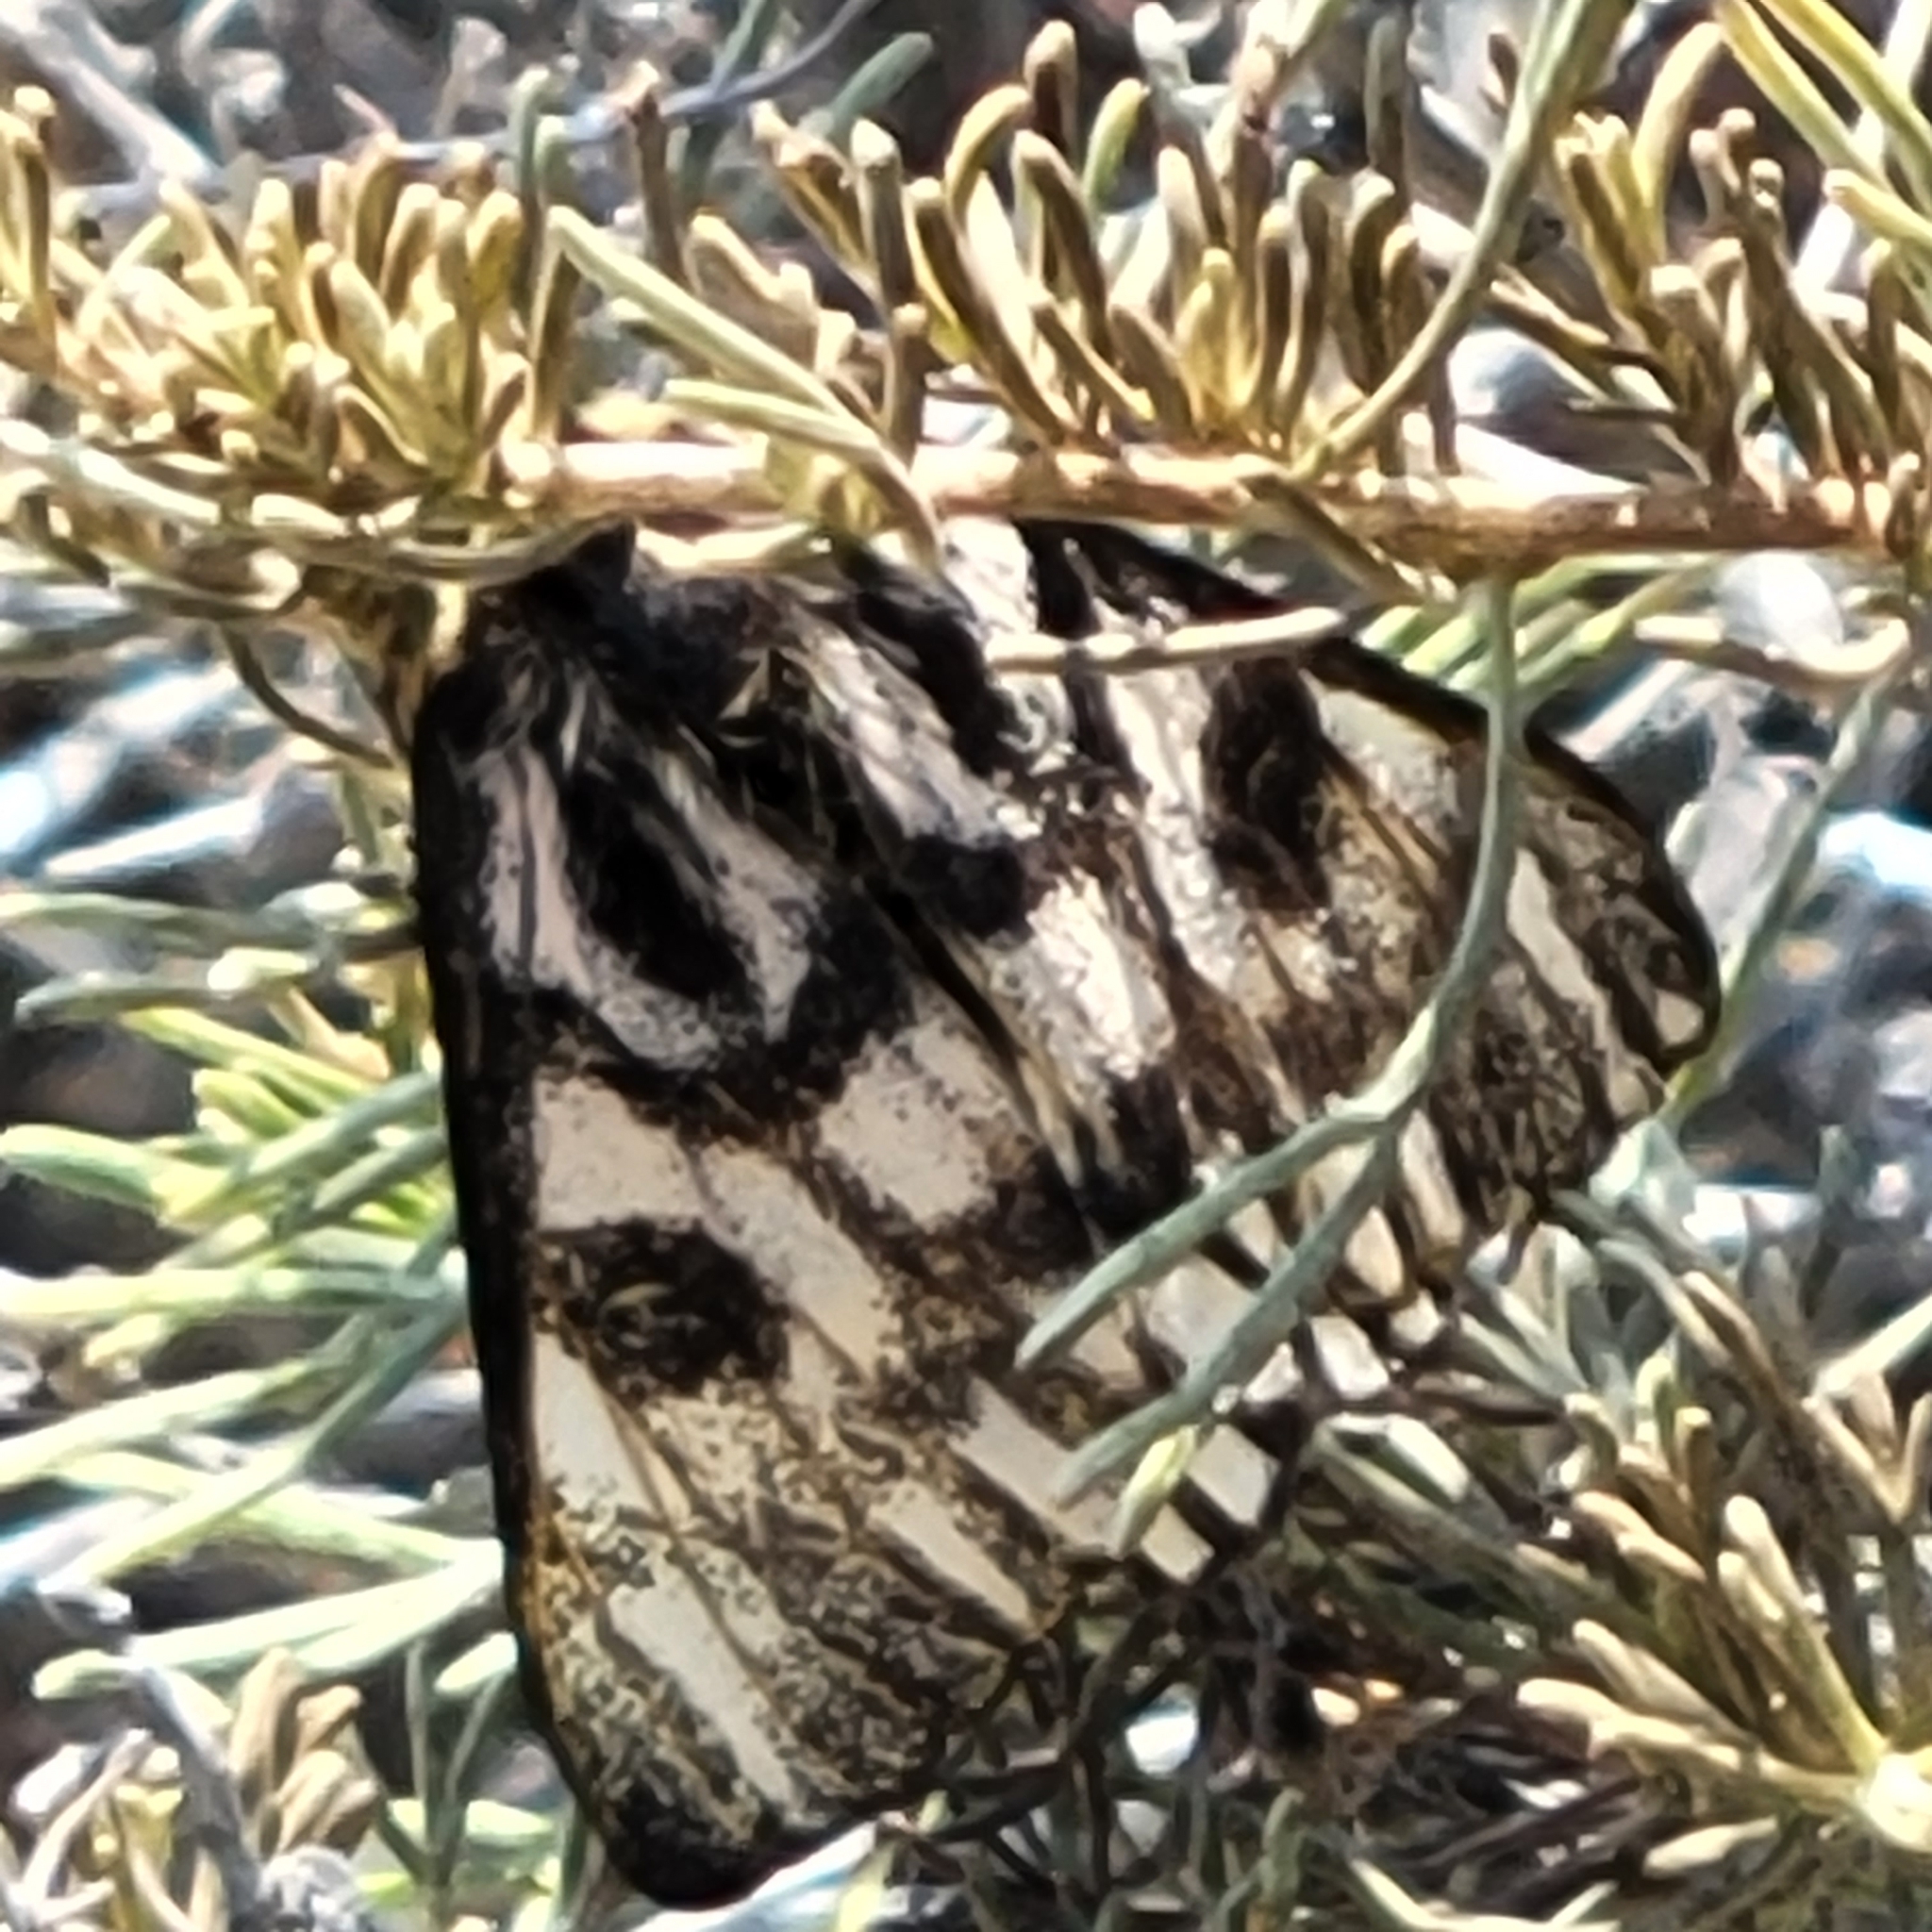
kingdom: Animalia
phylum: Arthropoda
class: Insecta
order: Lepidoptera
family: Saturniidae
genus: Hemileuca
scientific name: Hemileuca eglanterina
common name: Western sheepmoth
